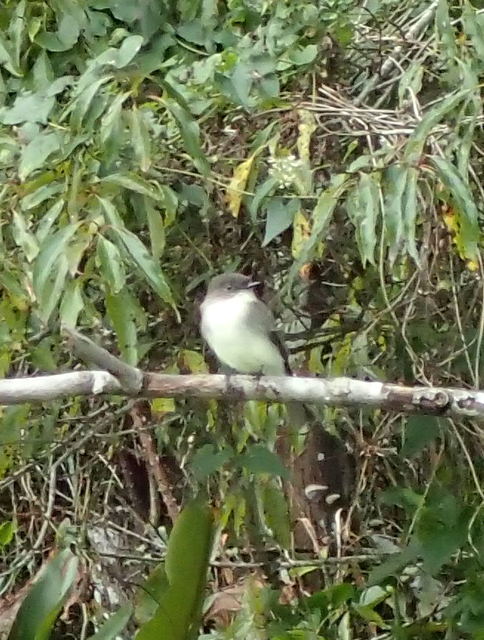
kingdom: Animalia
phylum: Chordata
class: Aves
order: Passeriformes
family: Tyrannidae
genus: Sayornis
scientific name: Sayornis phoebe
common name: Eastern phoebe
